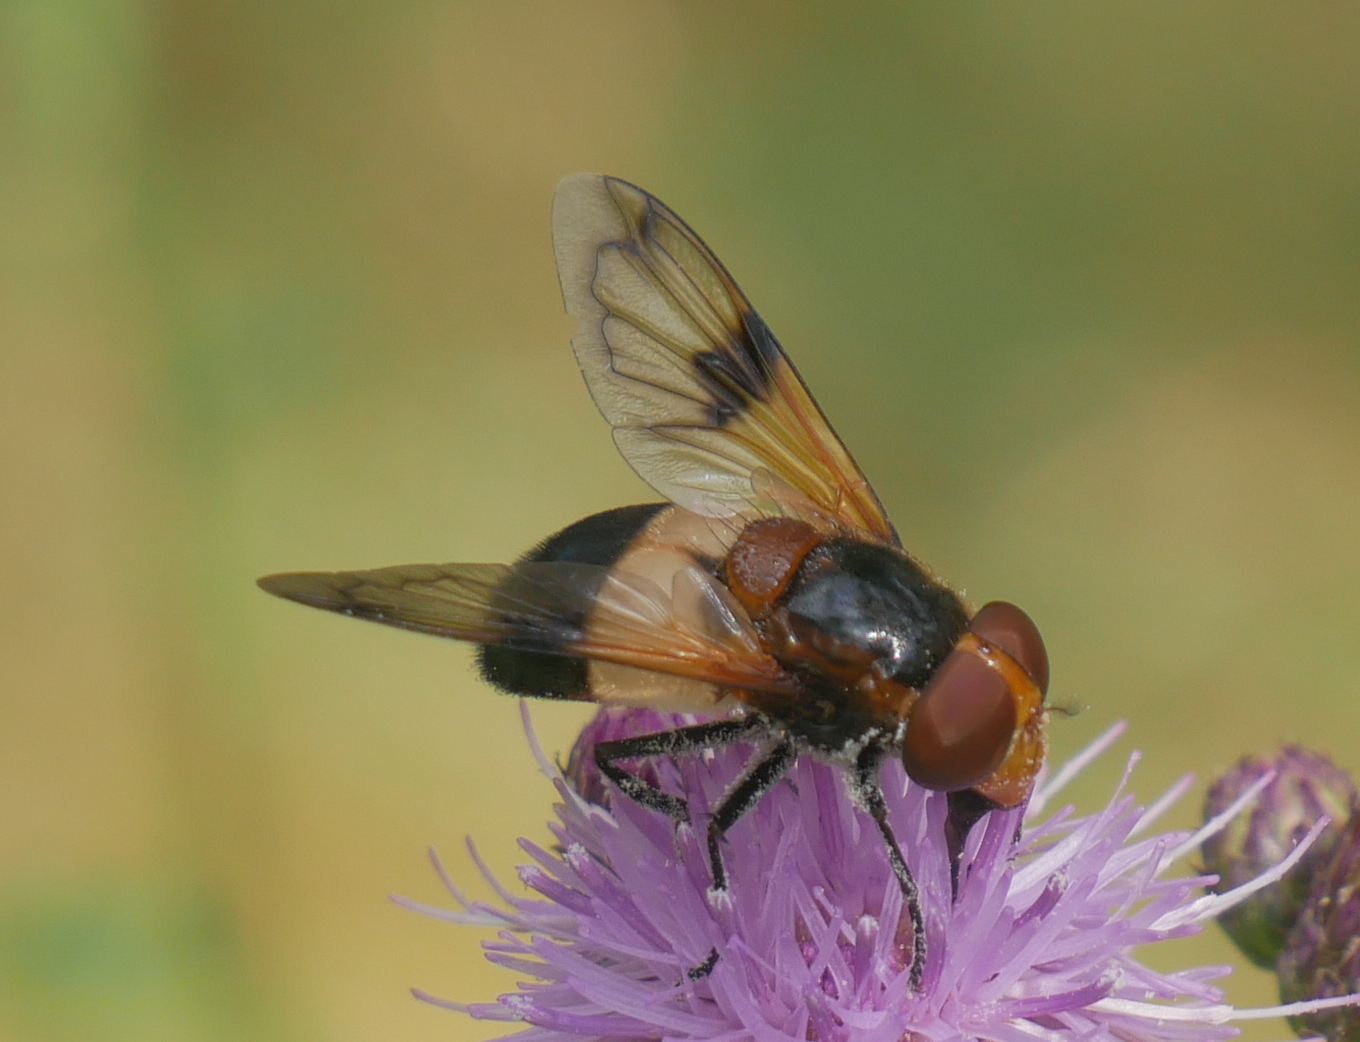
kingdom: Animalia
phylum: Arthropoda
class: Insecta
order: Diptera
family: Syrphidae
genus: Volucella
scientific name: Volucella pellucens
